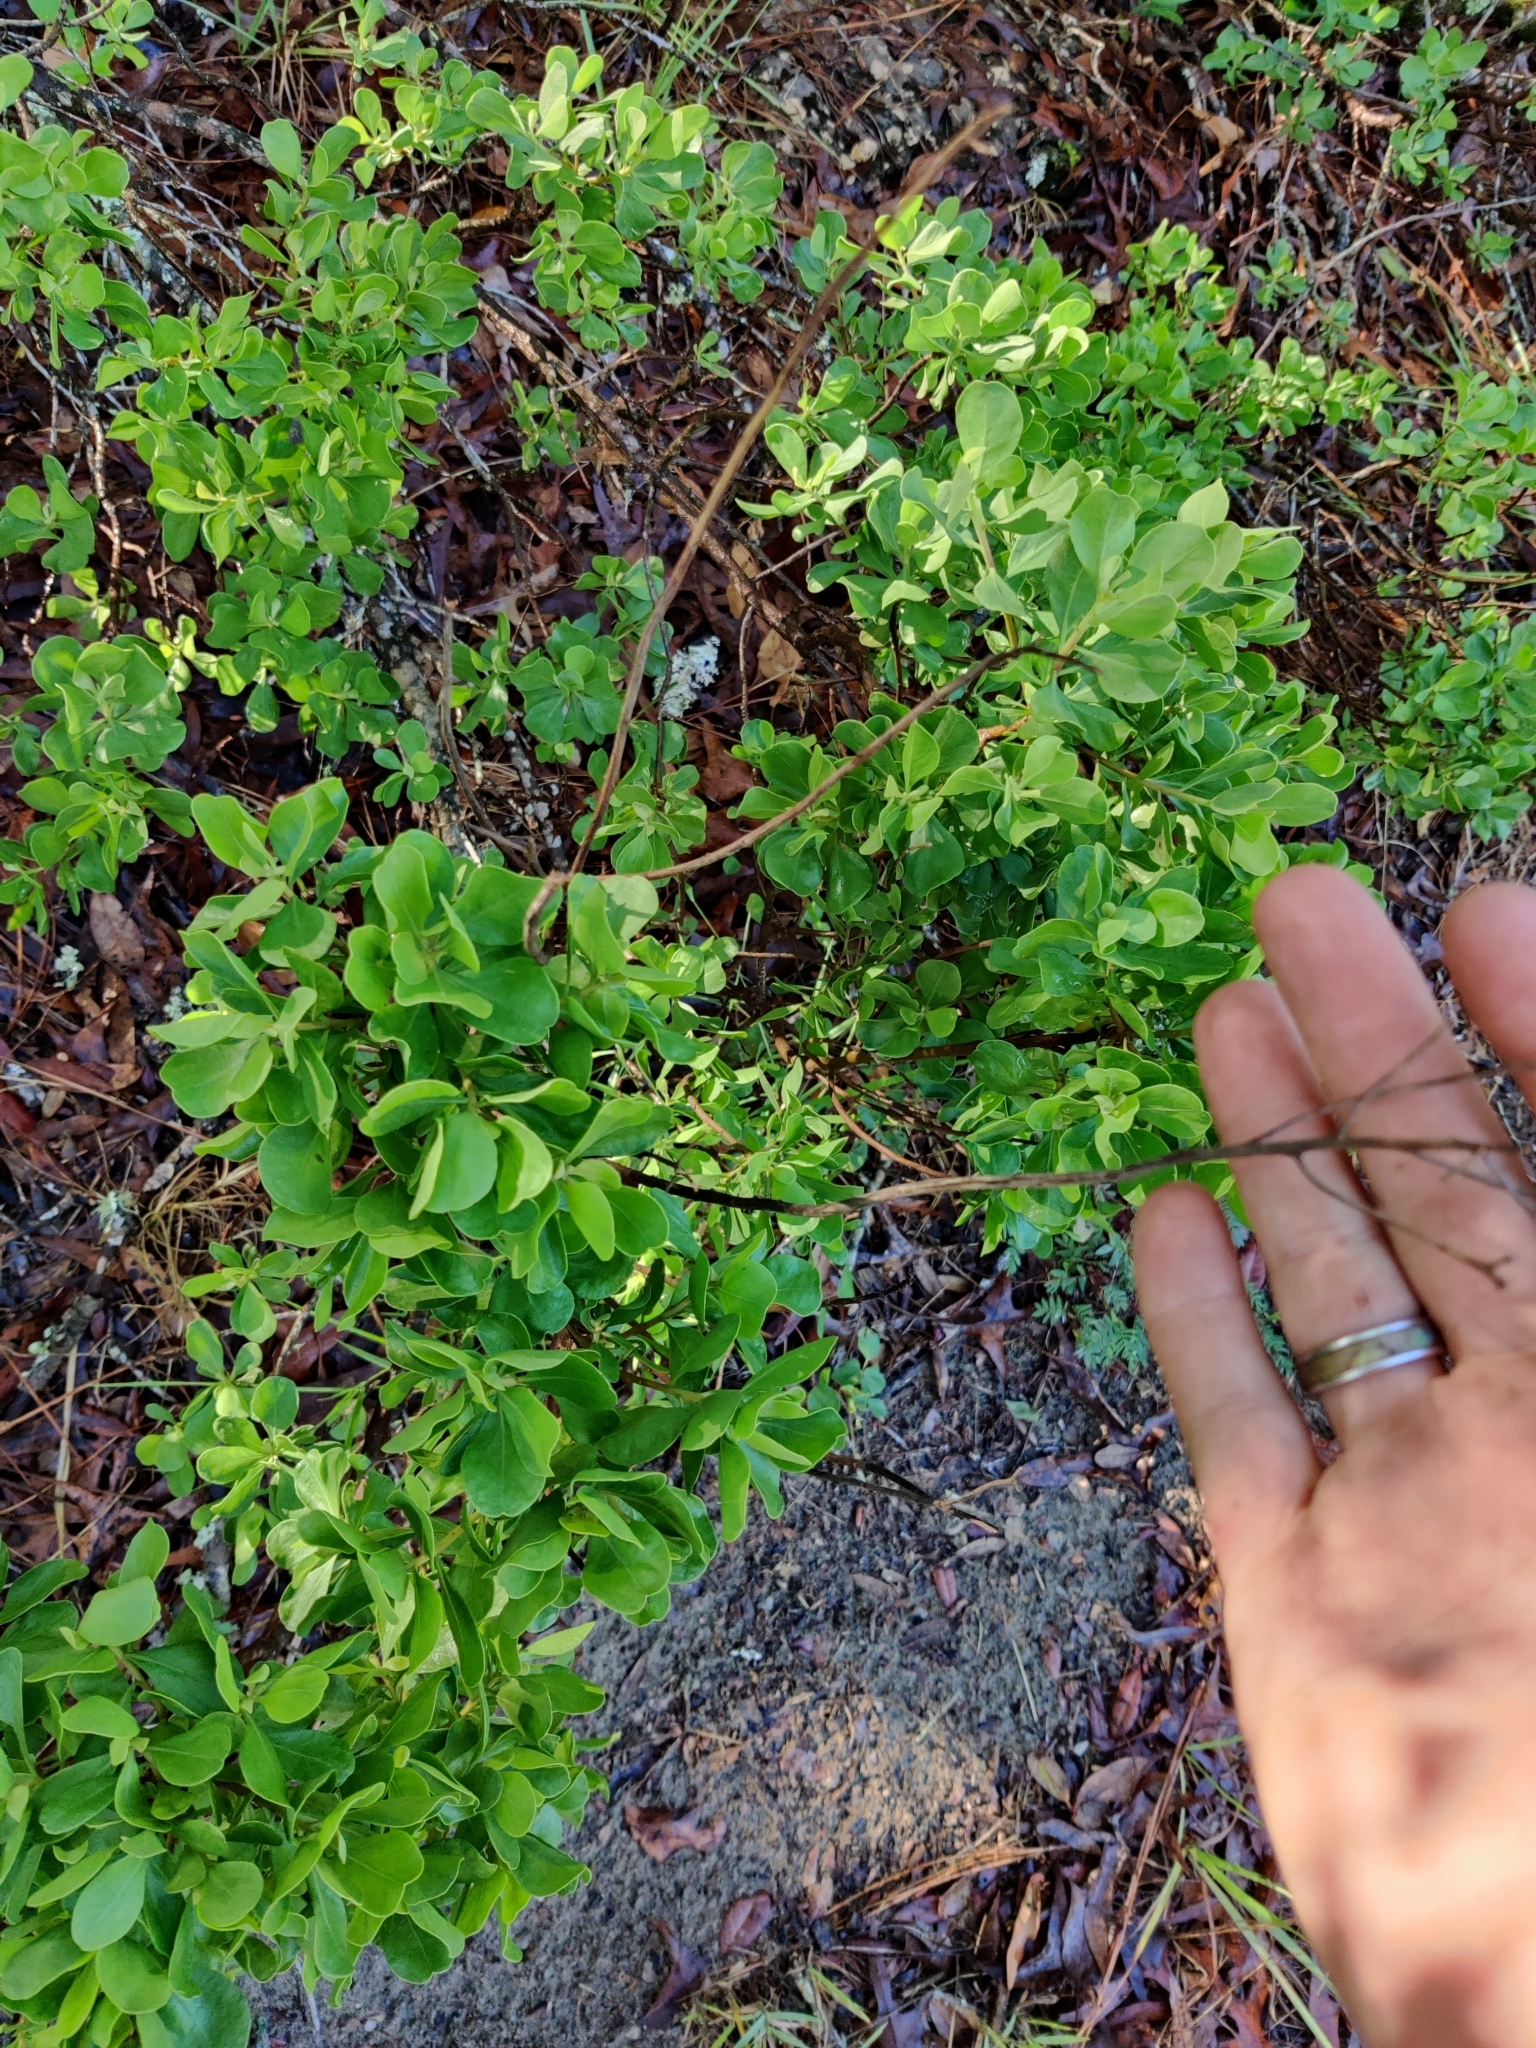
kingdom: Plantae
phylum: Tracheophyta
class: Magnoliopsida
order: Asterales
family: Asteraceae
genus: Garberia
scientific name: Garberia heterophylla
